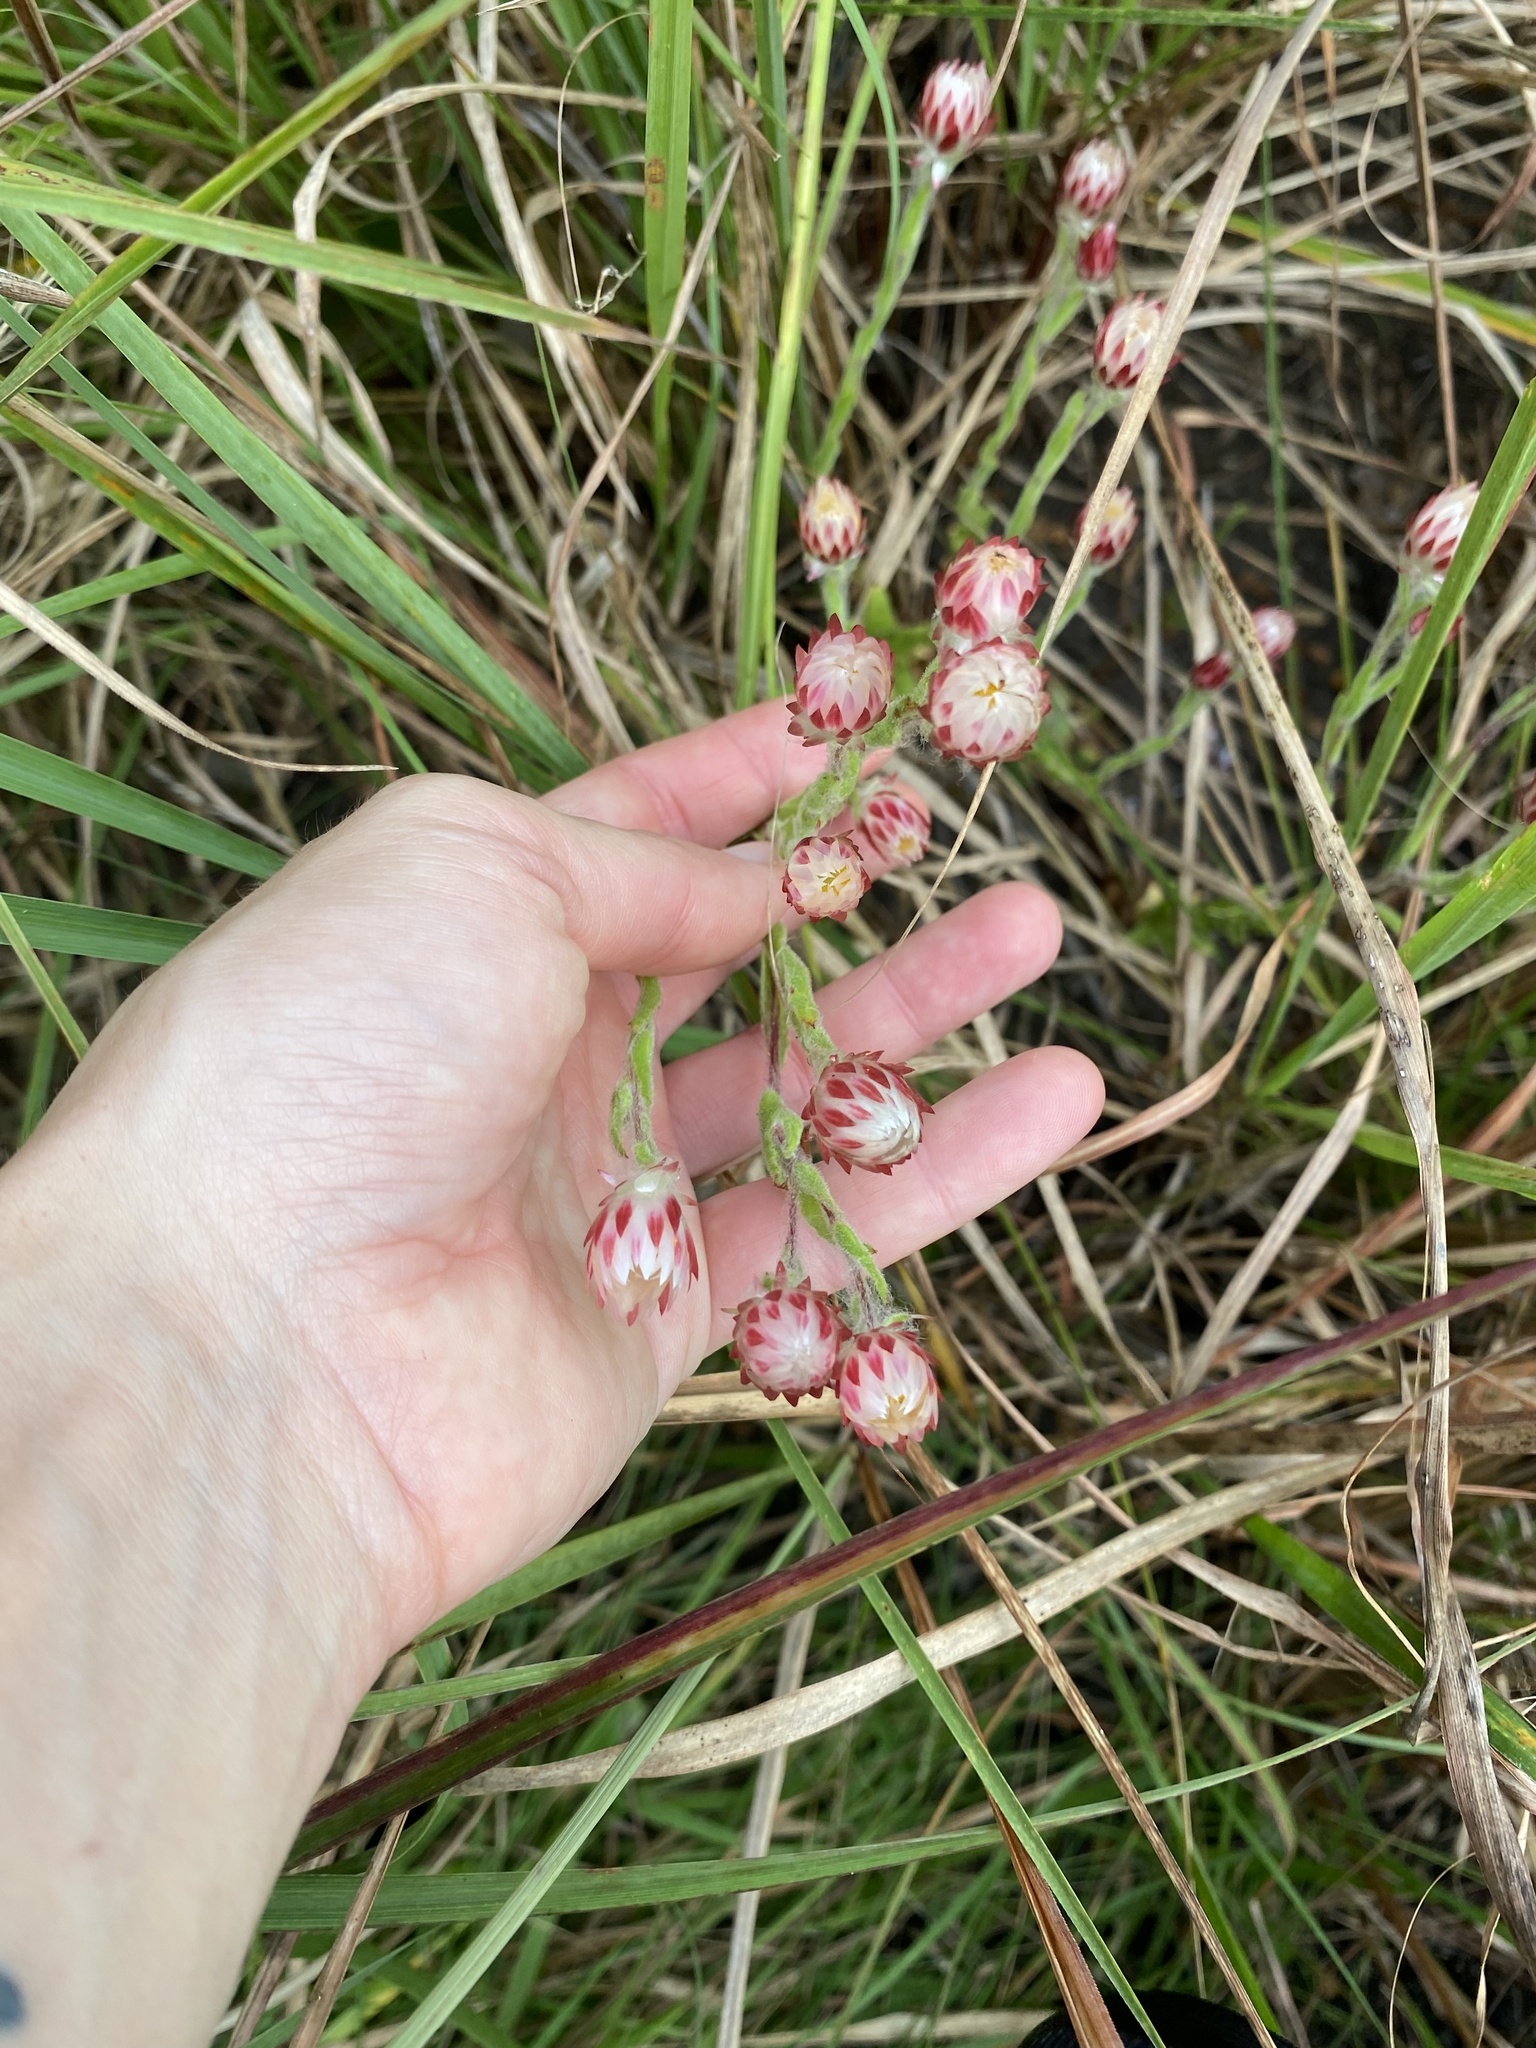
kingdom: Plantae
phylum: Tracheophyta
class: Magnoliopsida
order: Asterales
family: Asteraceae
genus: Helichrysum
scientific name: Helichrysum adenocarpum
